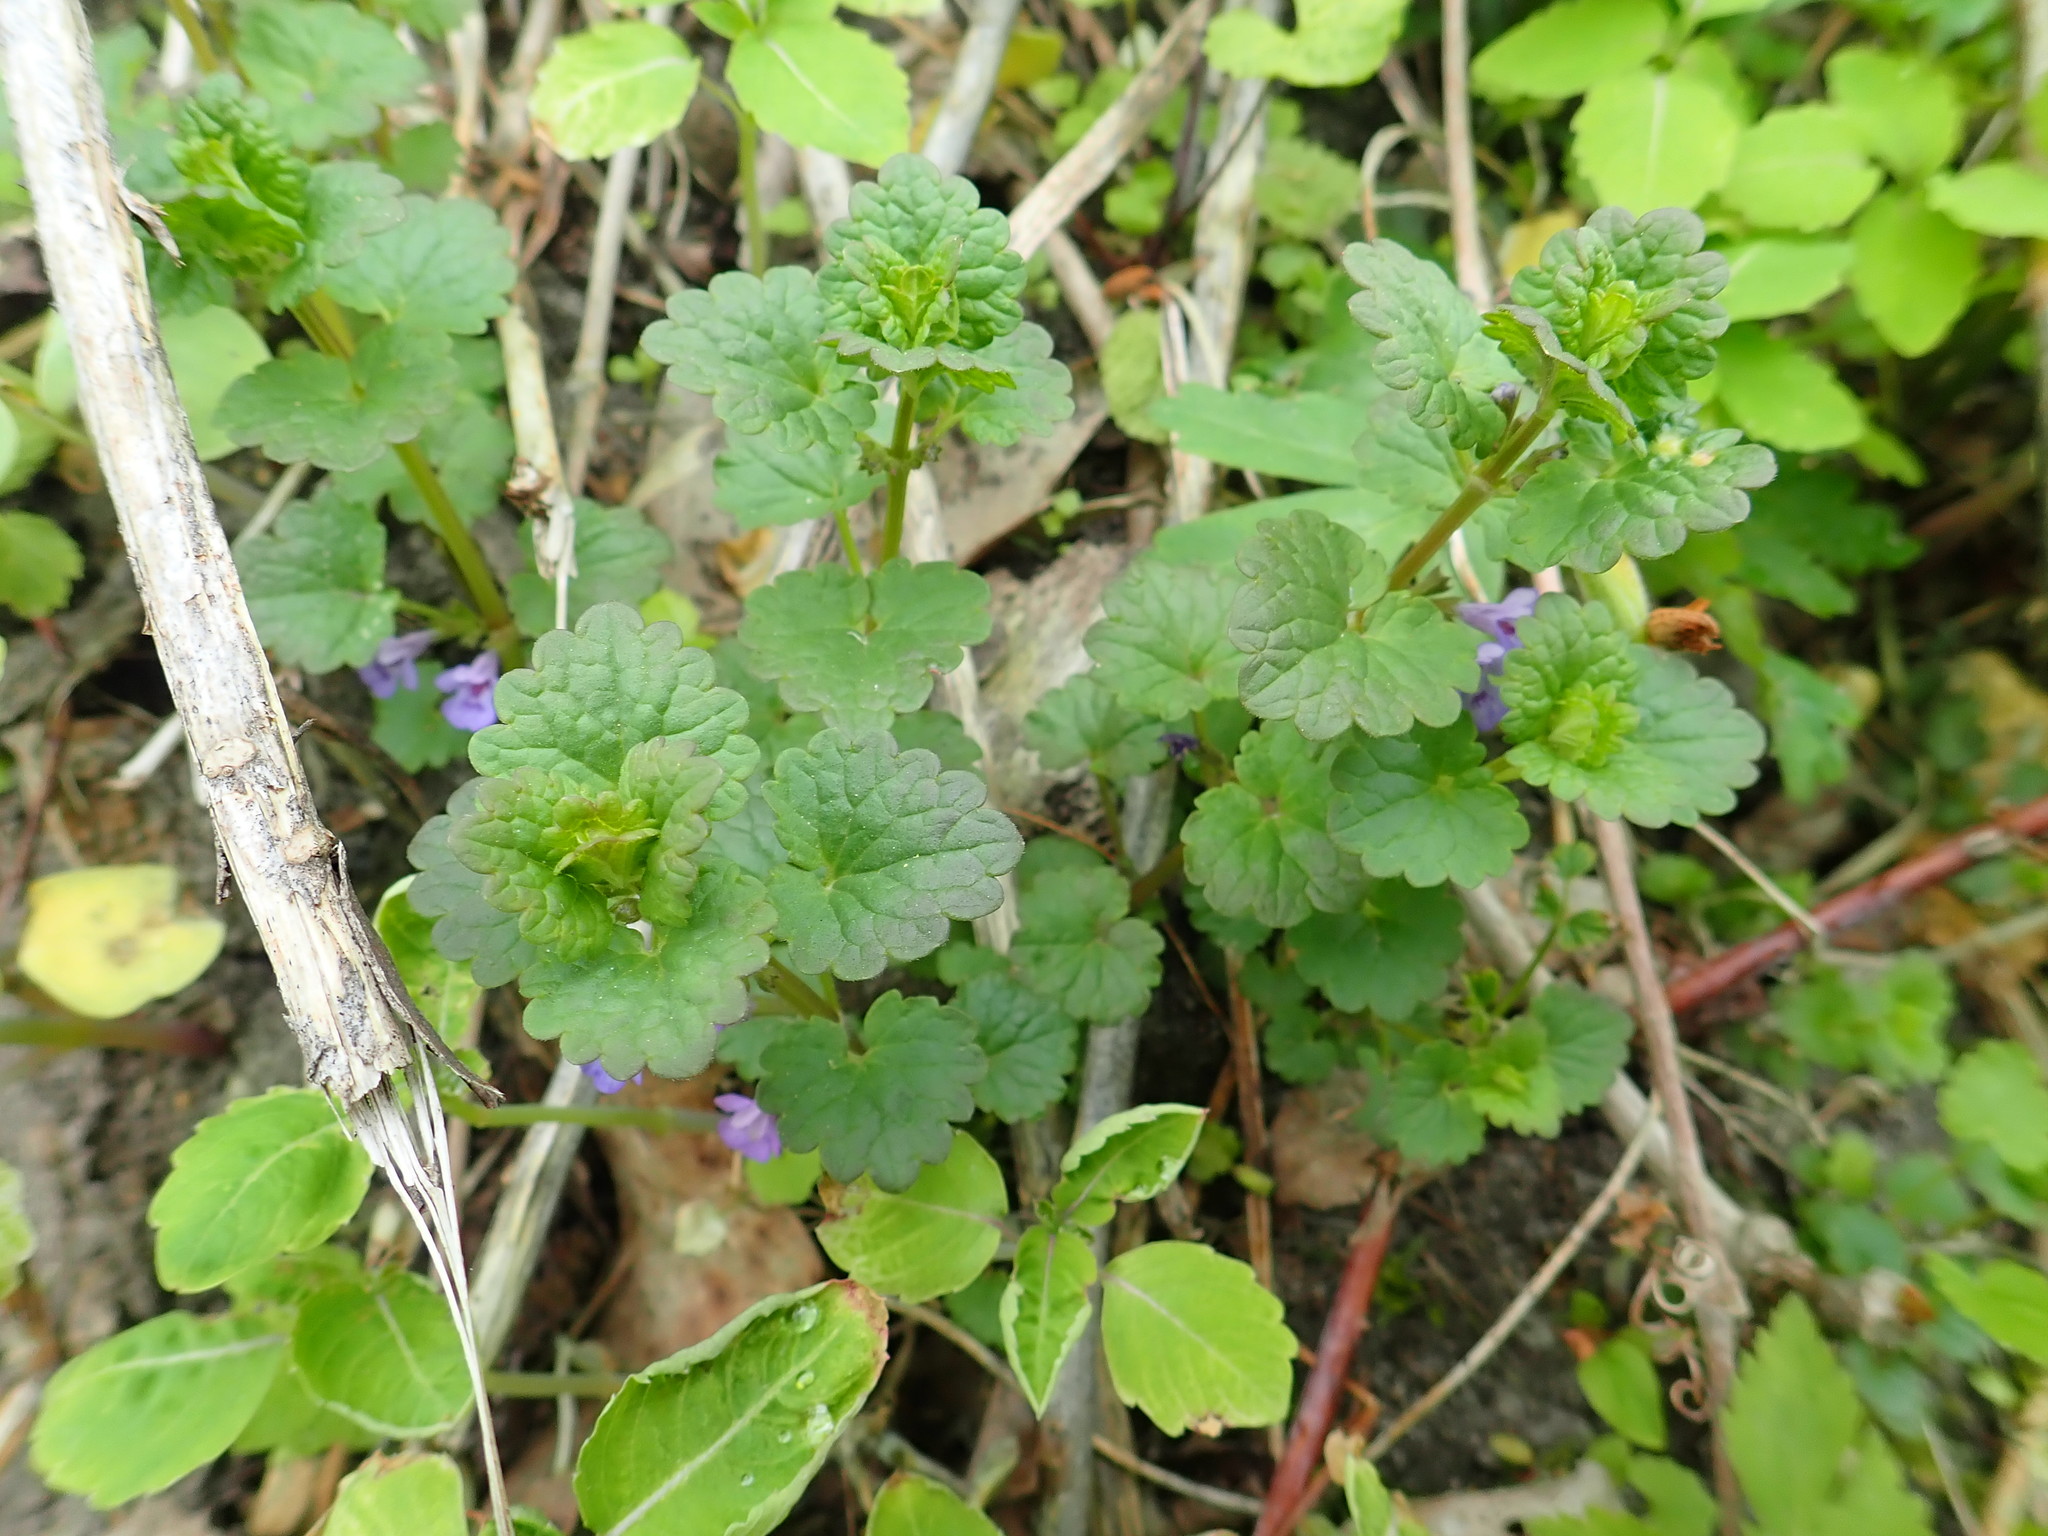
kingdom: Plantae
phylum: Tracheophyta
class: Magnoliopsida
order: Lamiales
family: Lamiaceae
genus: Glechoma
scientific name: Glechoma hederacea
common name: Ground ivy
